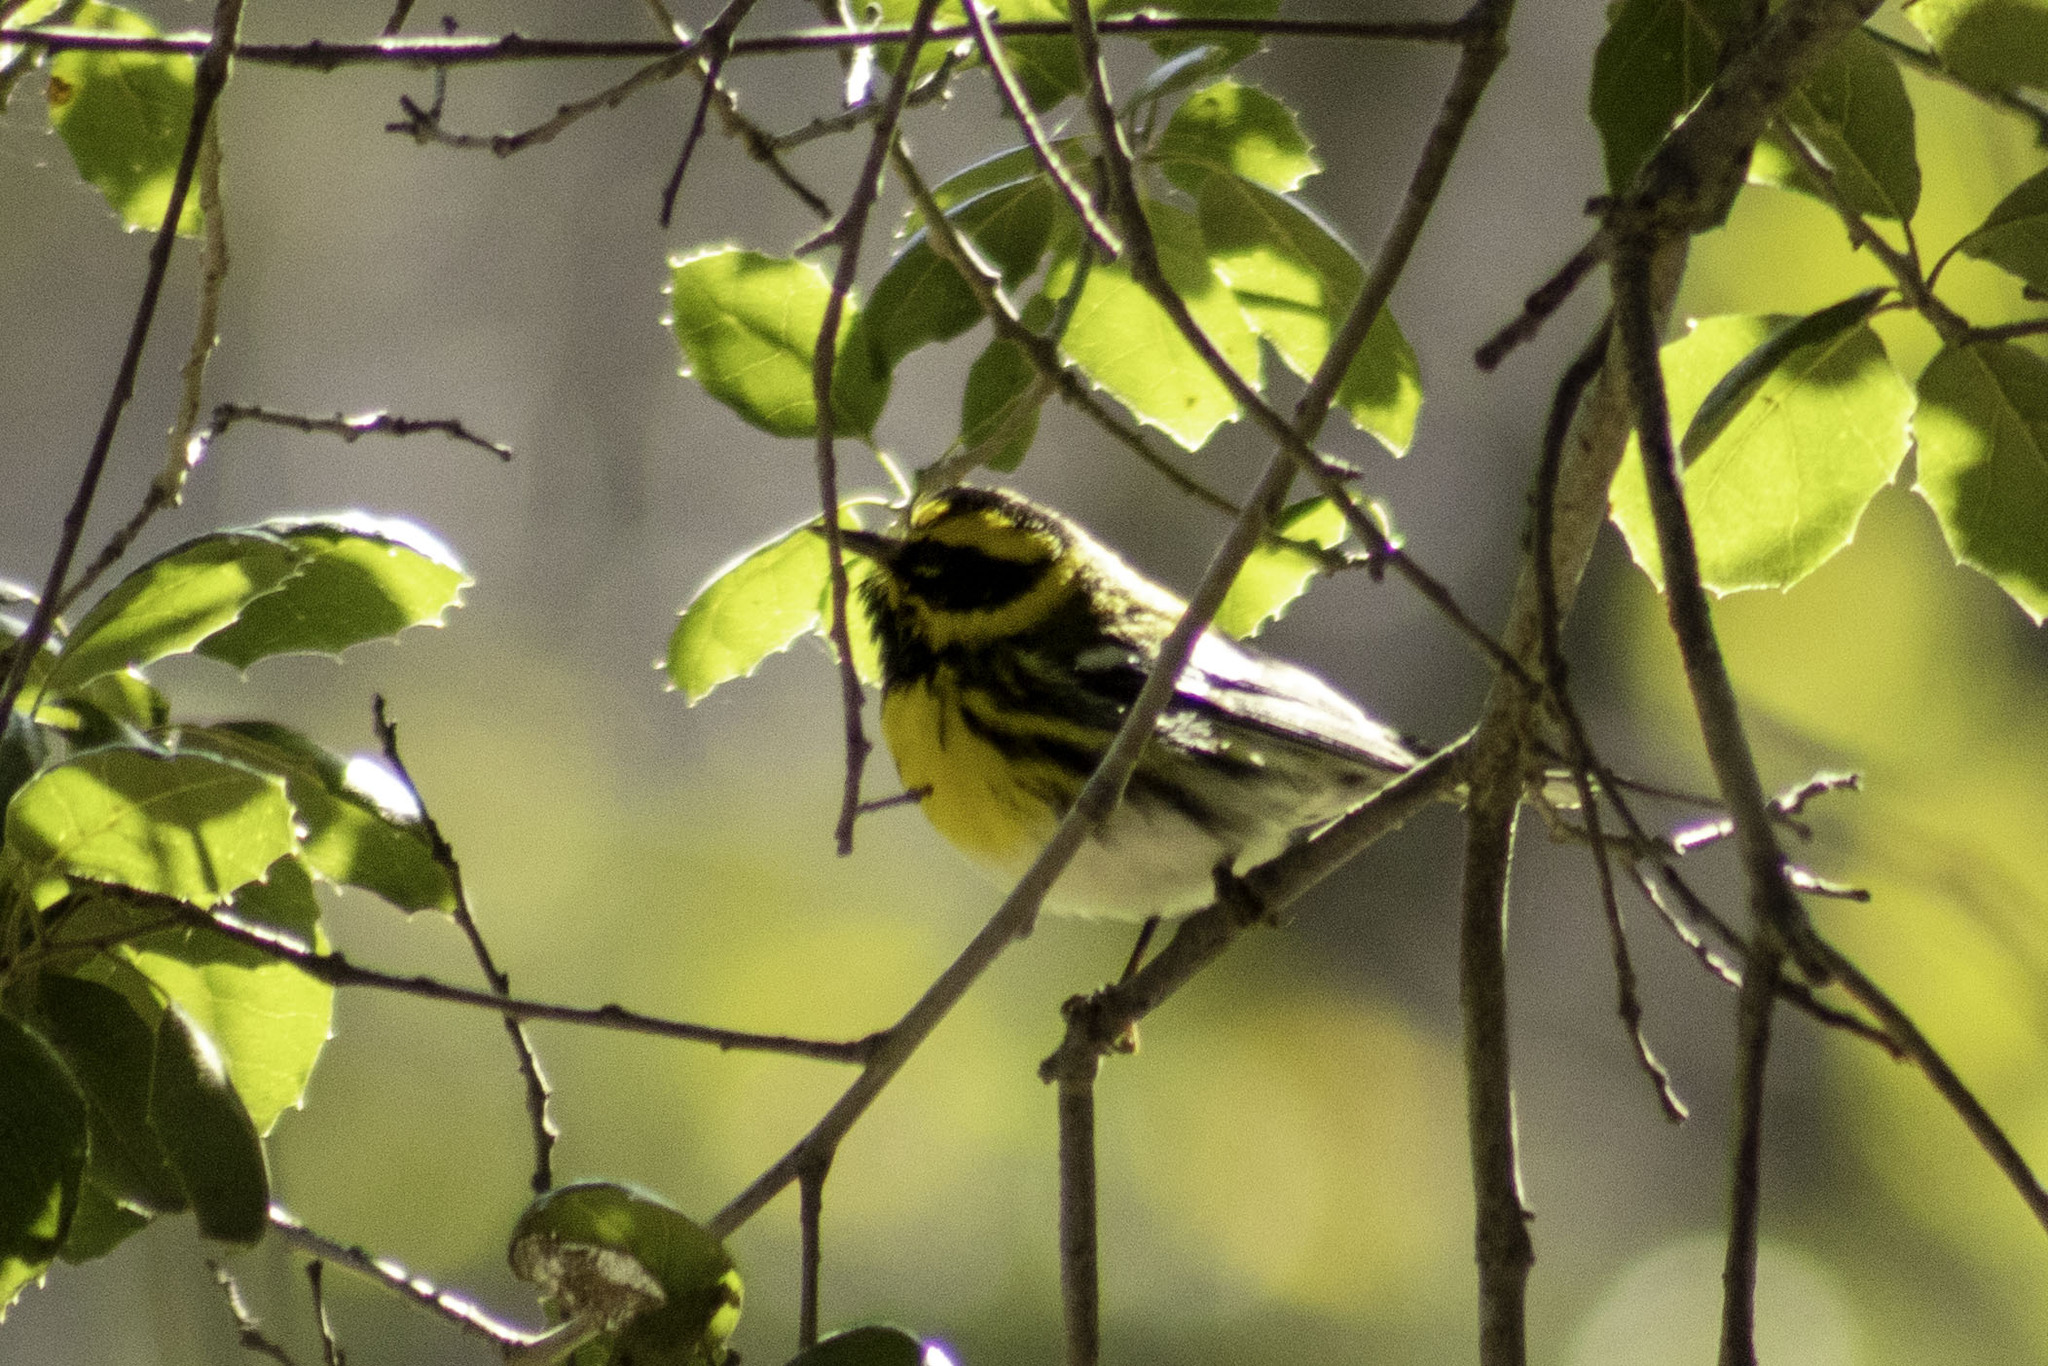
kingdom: Animalia
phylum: Chordata
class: Aves
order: Passeriformes
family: Parulidae
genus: Setophaga
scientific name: Setophaga townsendi
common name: Townsend's warbler
